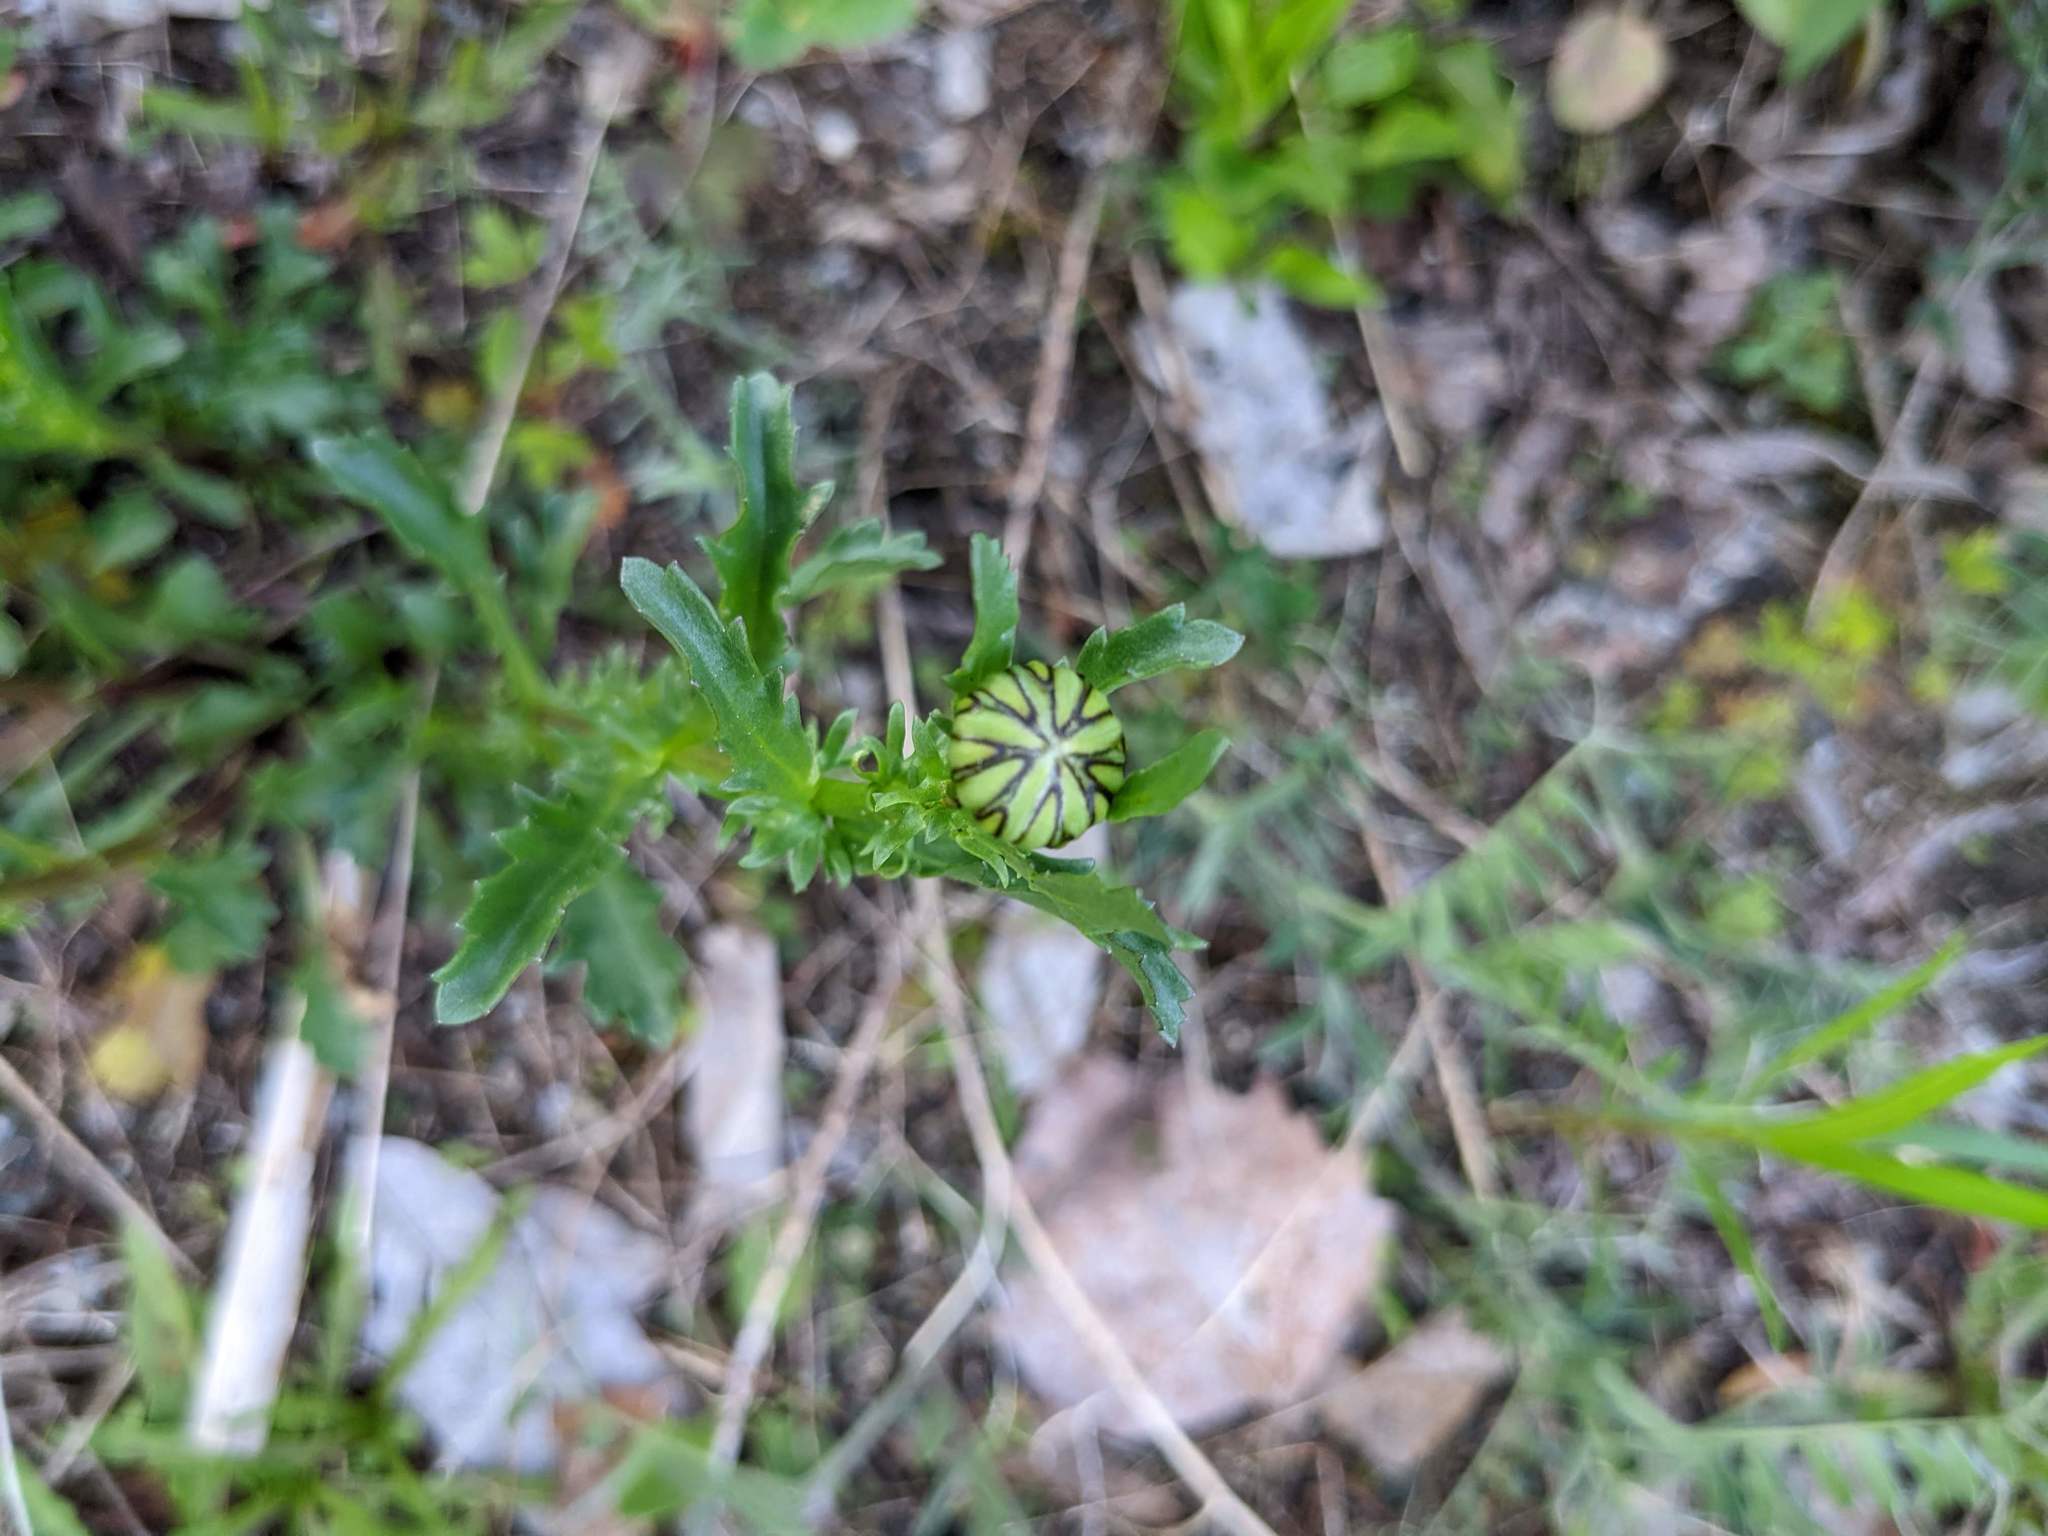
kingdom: Plantae
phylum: Tracheophyta
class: Magnoliopsida
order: Asterales
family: Asteraceae
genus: Leucanthemum
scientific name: Leucanthemum vulgare
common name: Oxeye daisy
